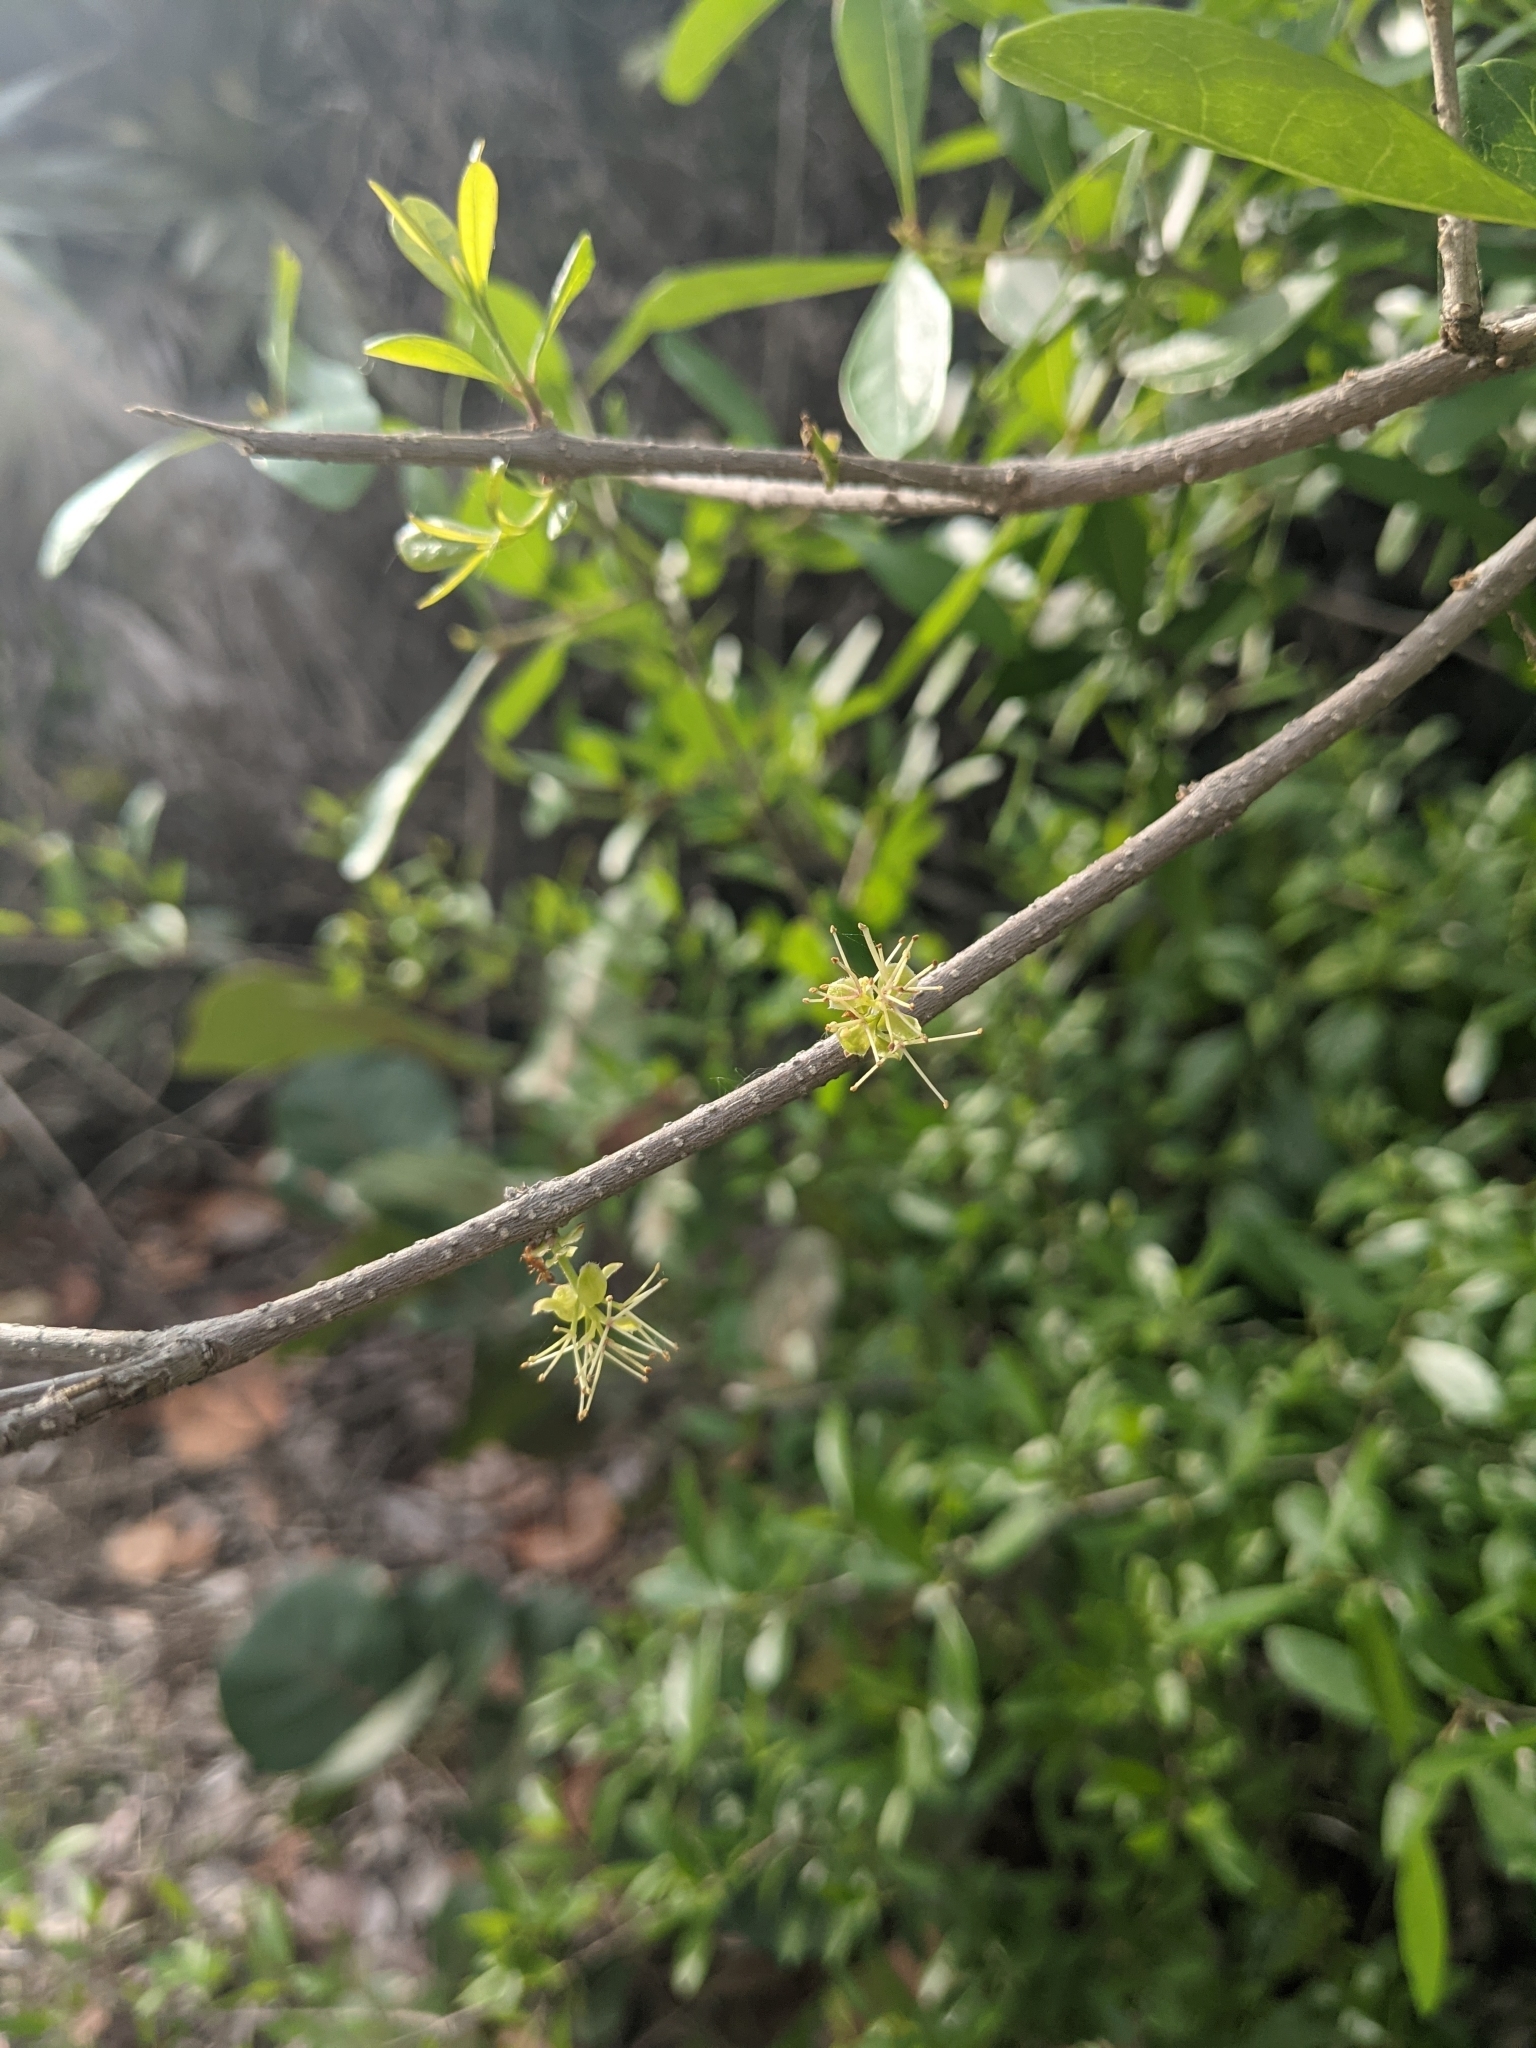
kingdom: Plantae
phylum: Tracheophyta
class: Magnoliopsida
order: Lamiales
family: Oleaceae
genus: Forestiera
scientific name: Forestiera segregata
